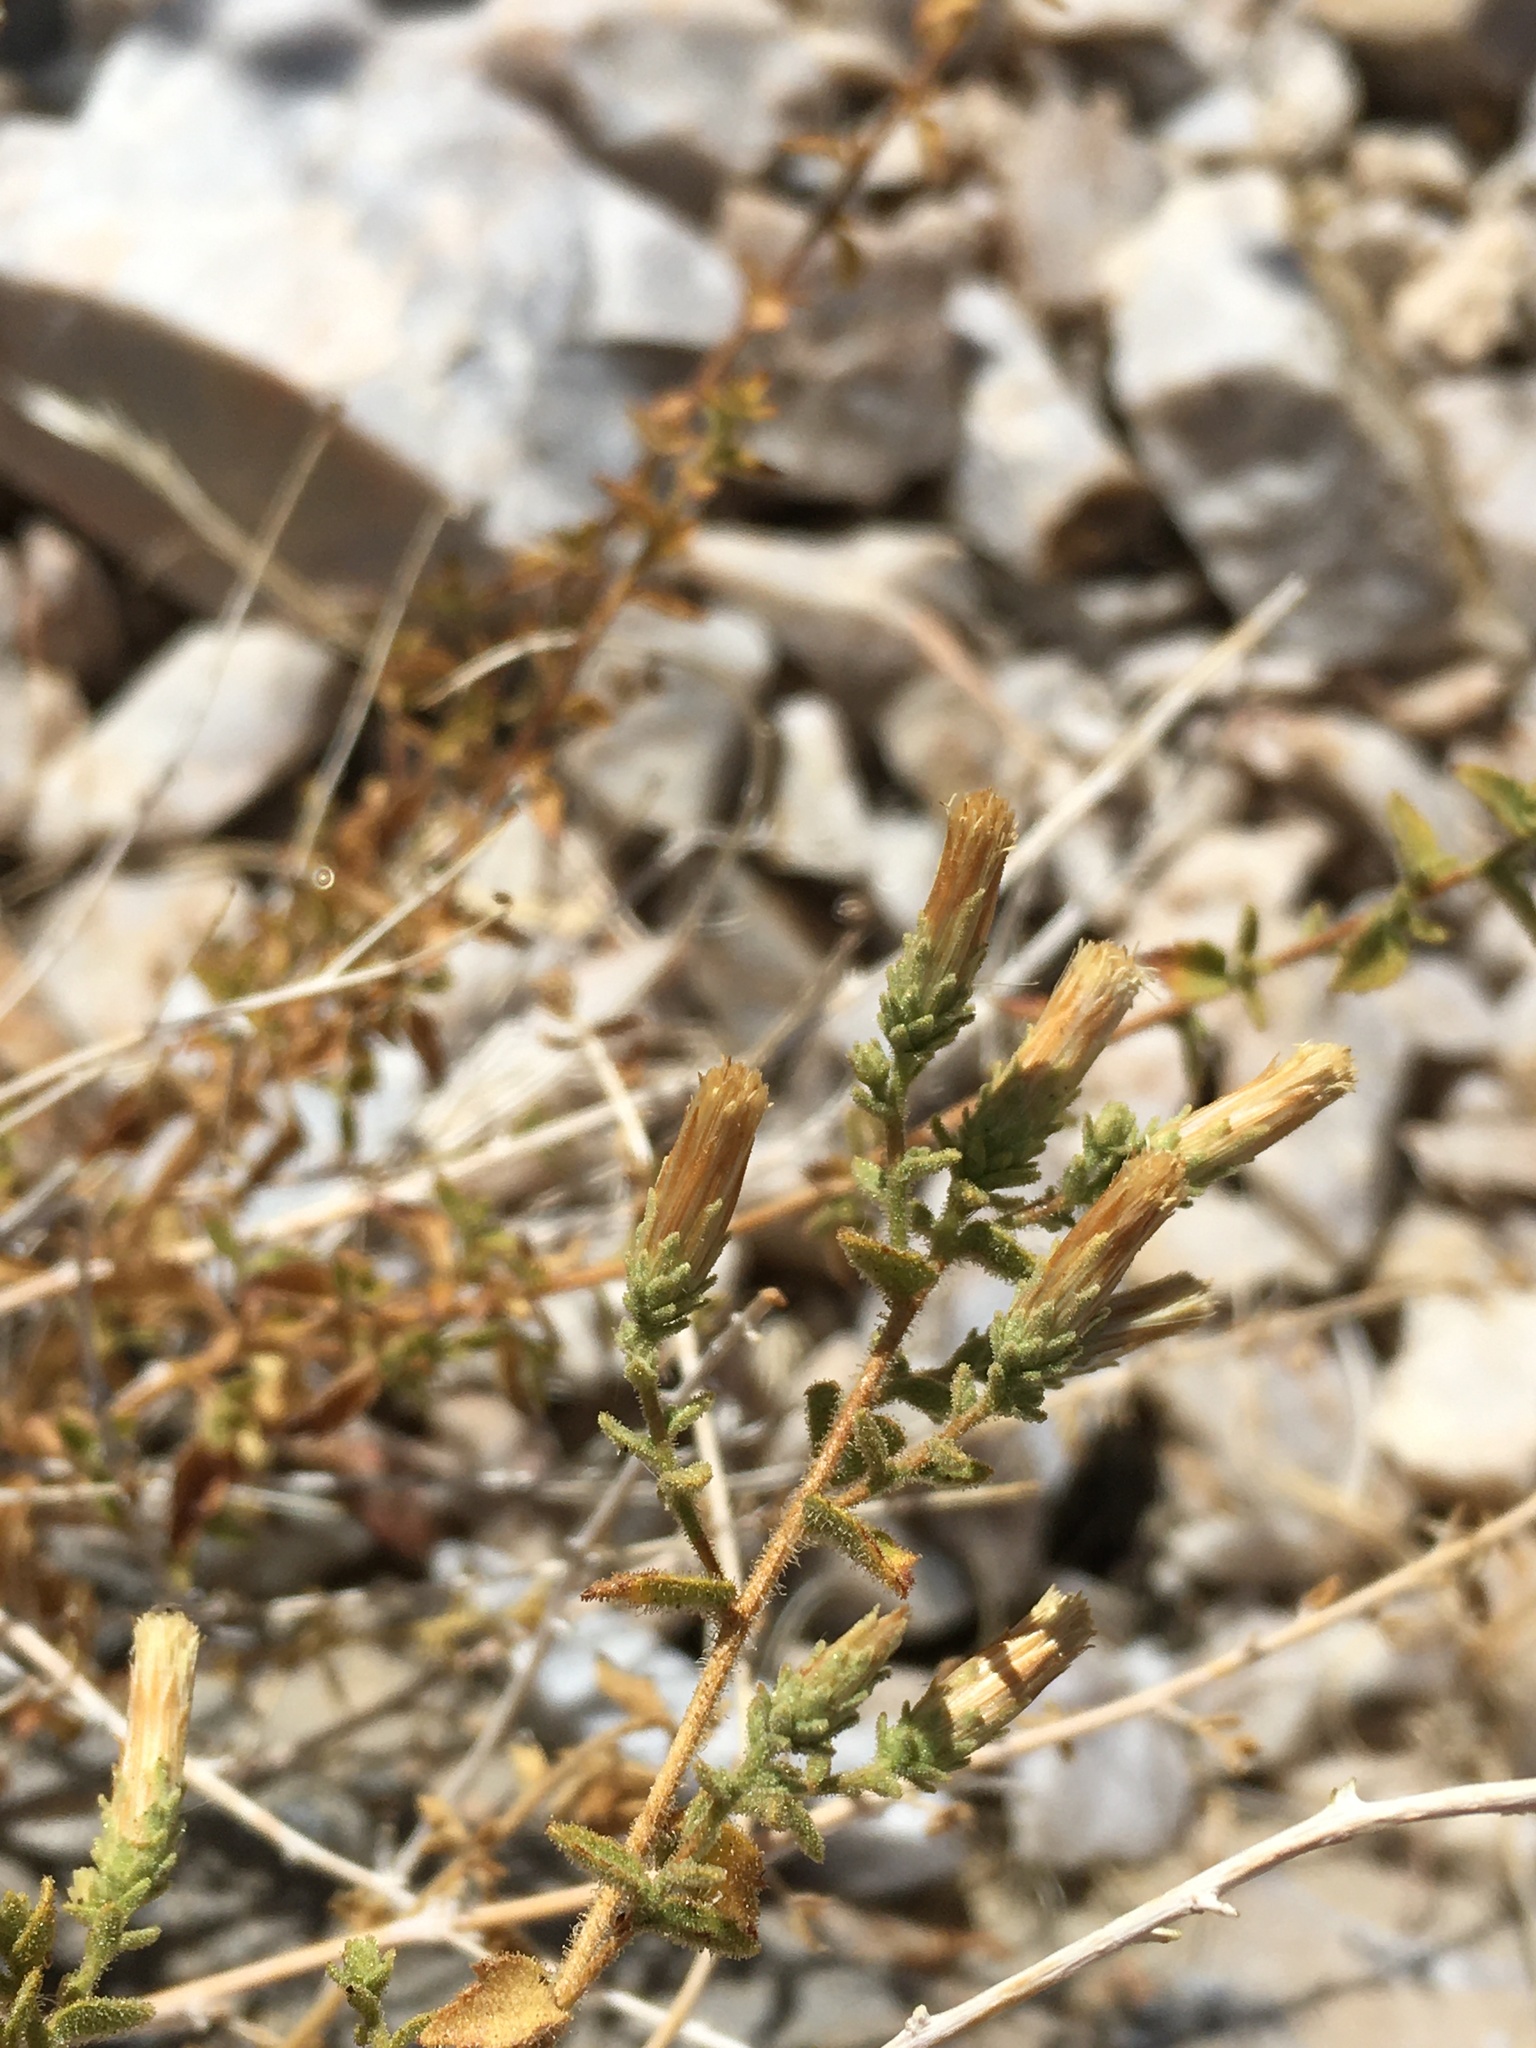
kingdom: Plantae
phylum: Tracheophyta
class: Magnoliopsida
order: Asterales
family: Asteraceae
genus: Brickellia
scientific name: Brickellia microphylla
